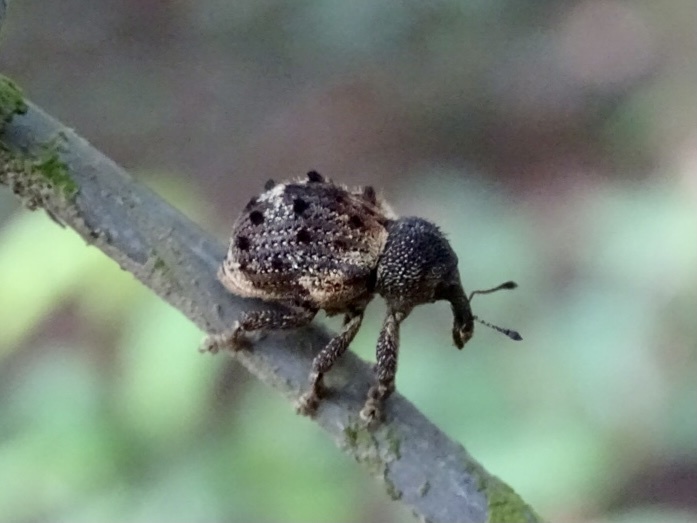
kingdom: Animalia
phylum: Arthropoda
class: Insecta
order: Coleoptera
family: Brachyceridae
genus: Desmidophorus
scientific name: Desmidophorus hebes
